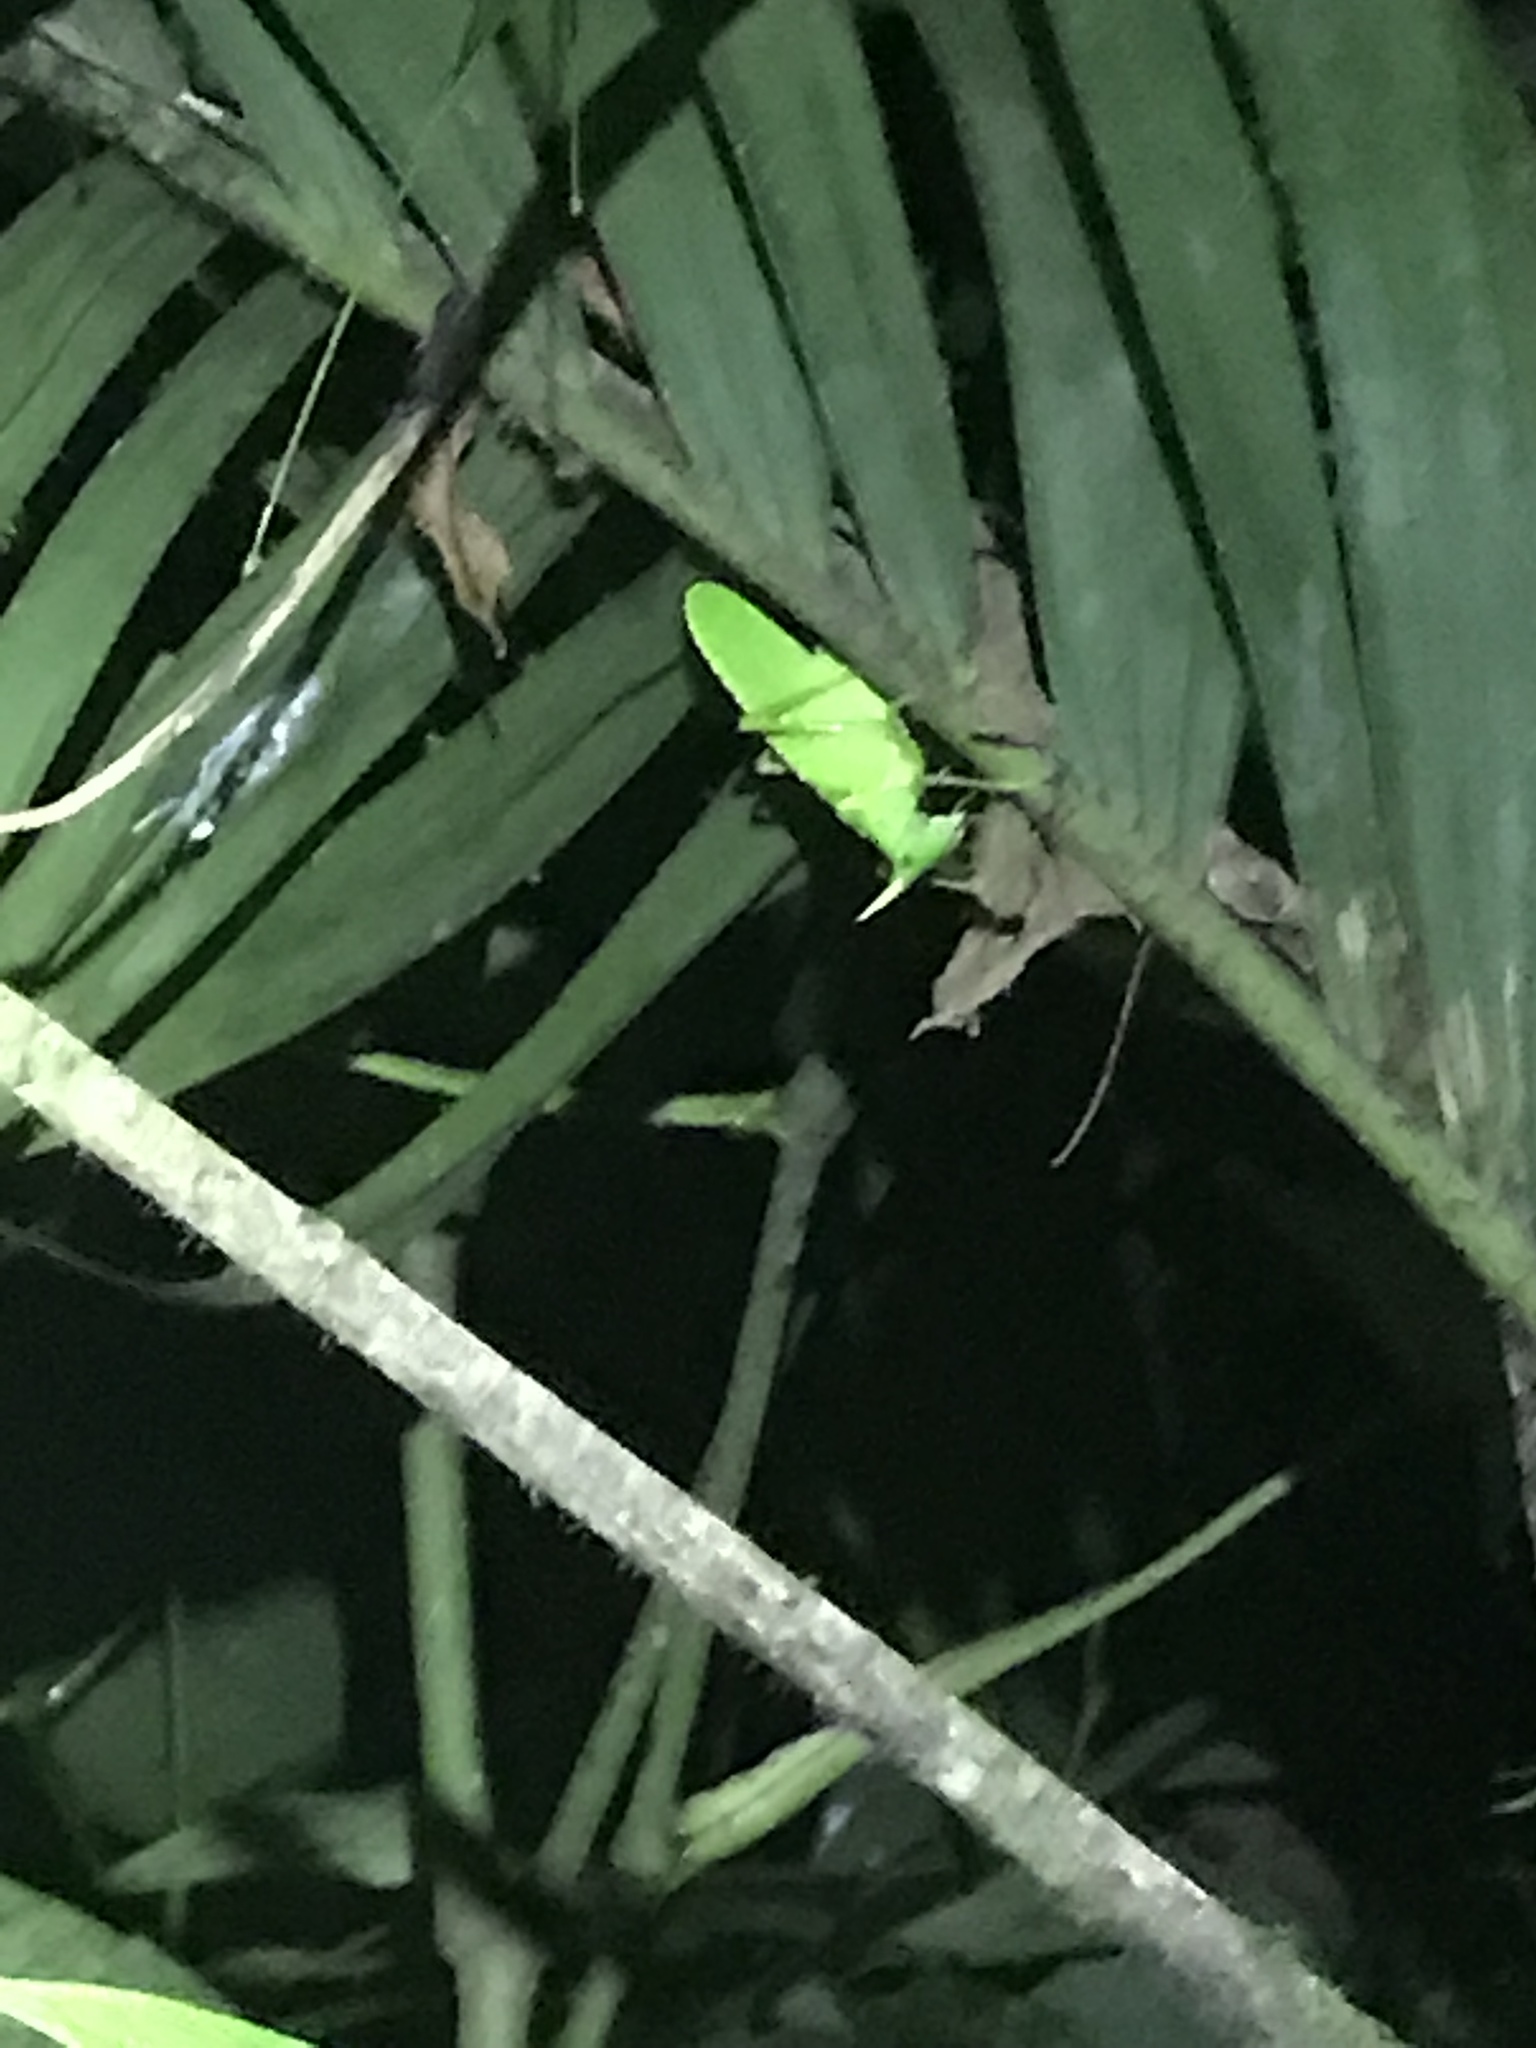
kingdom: Animalia
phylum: Arthropoda
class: Insecta
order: Orthoptera
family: Tettigoniidae
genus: Copiphora
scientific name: Copiphora rhinoceros
